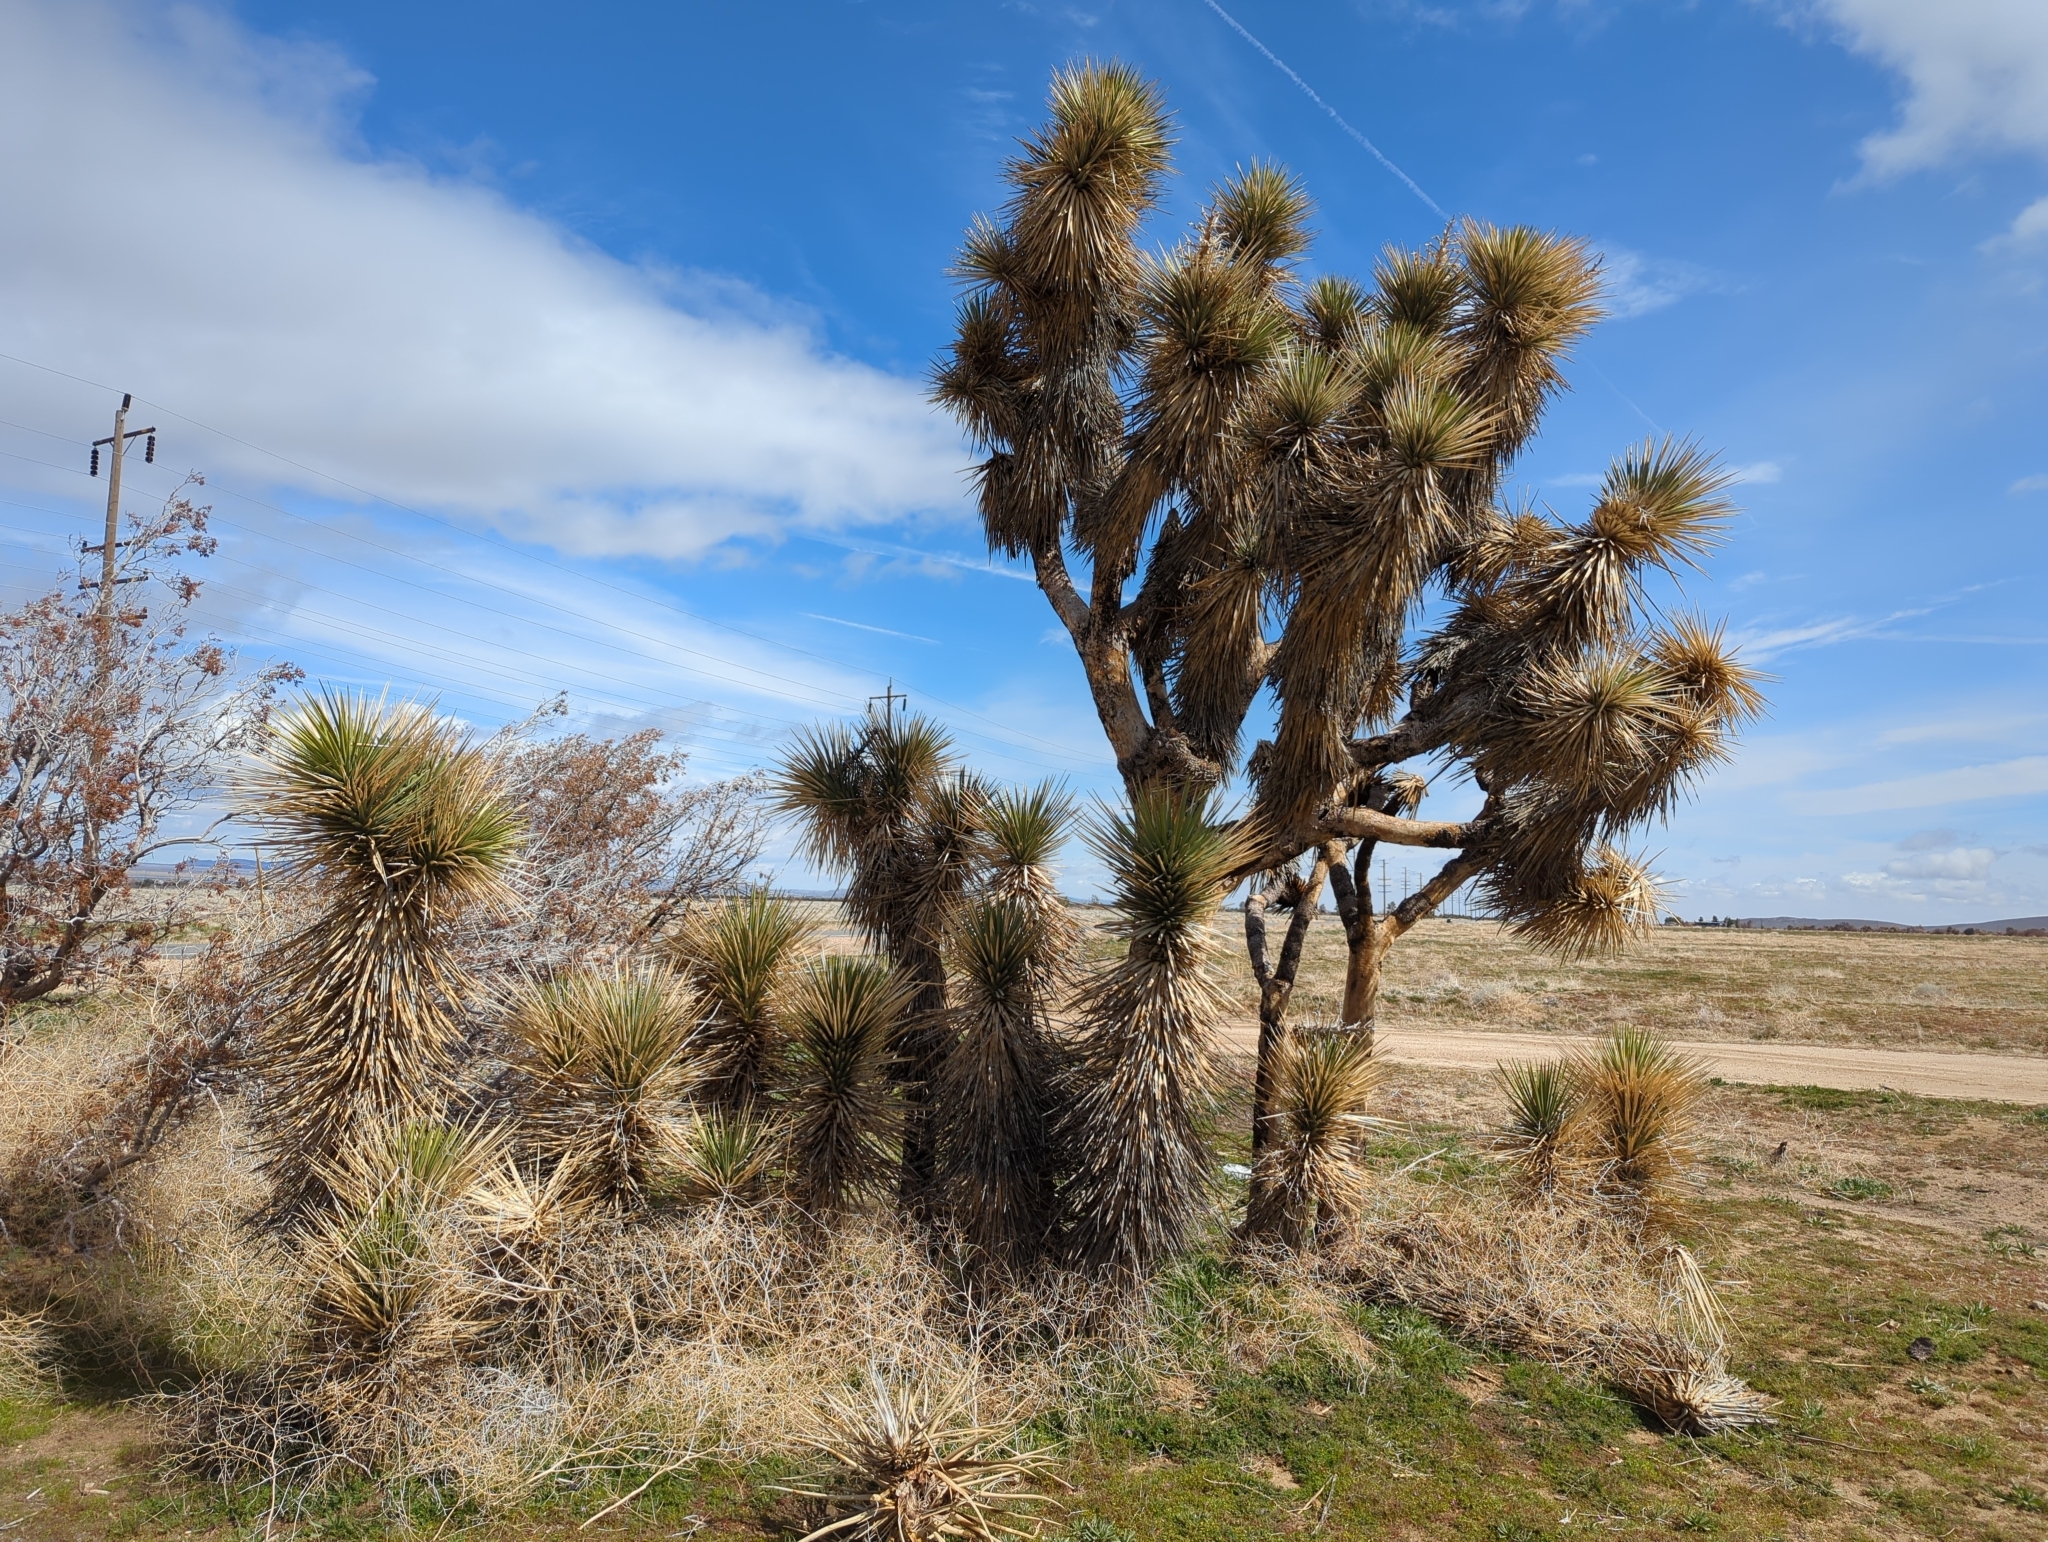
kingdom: Plantae
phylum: Tracheophyta
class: Liliopsida
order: Asparagales
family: Asparagaceae
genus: Yucca
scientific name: Yucca brevifolia
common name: Joshua tree
